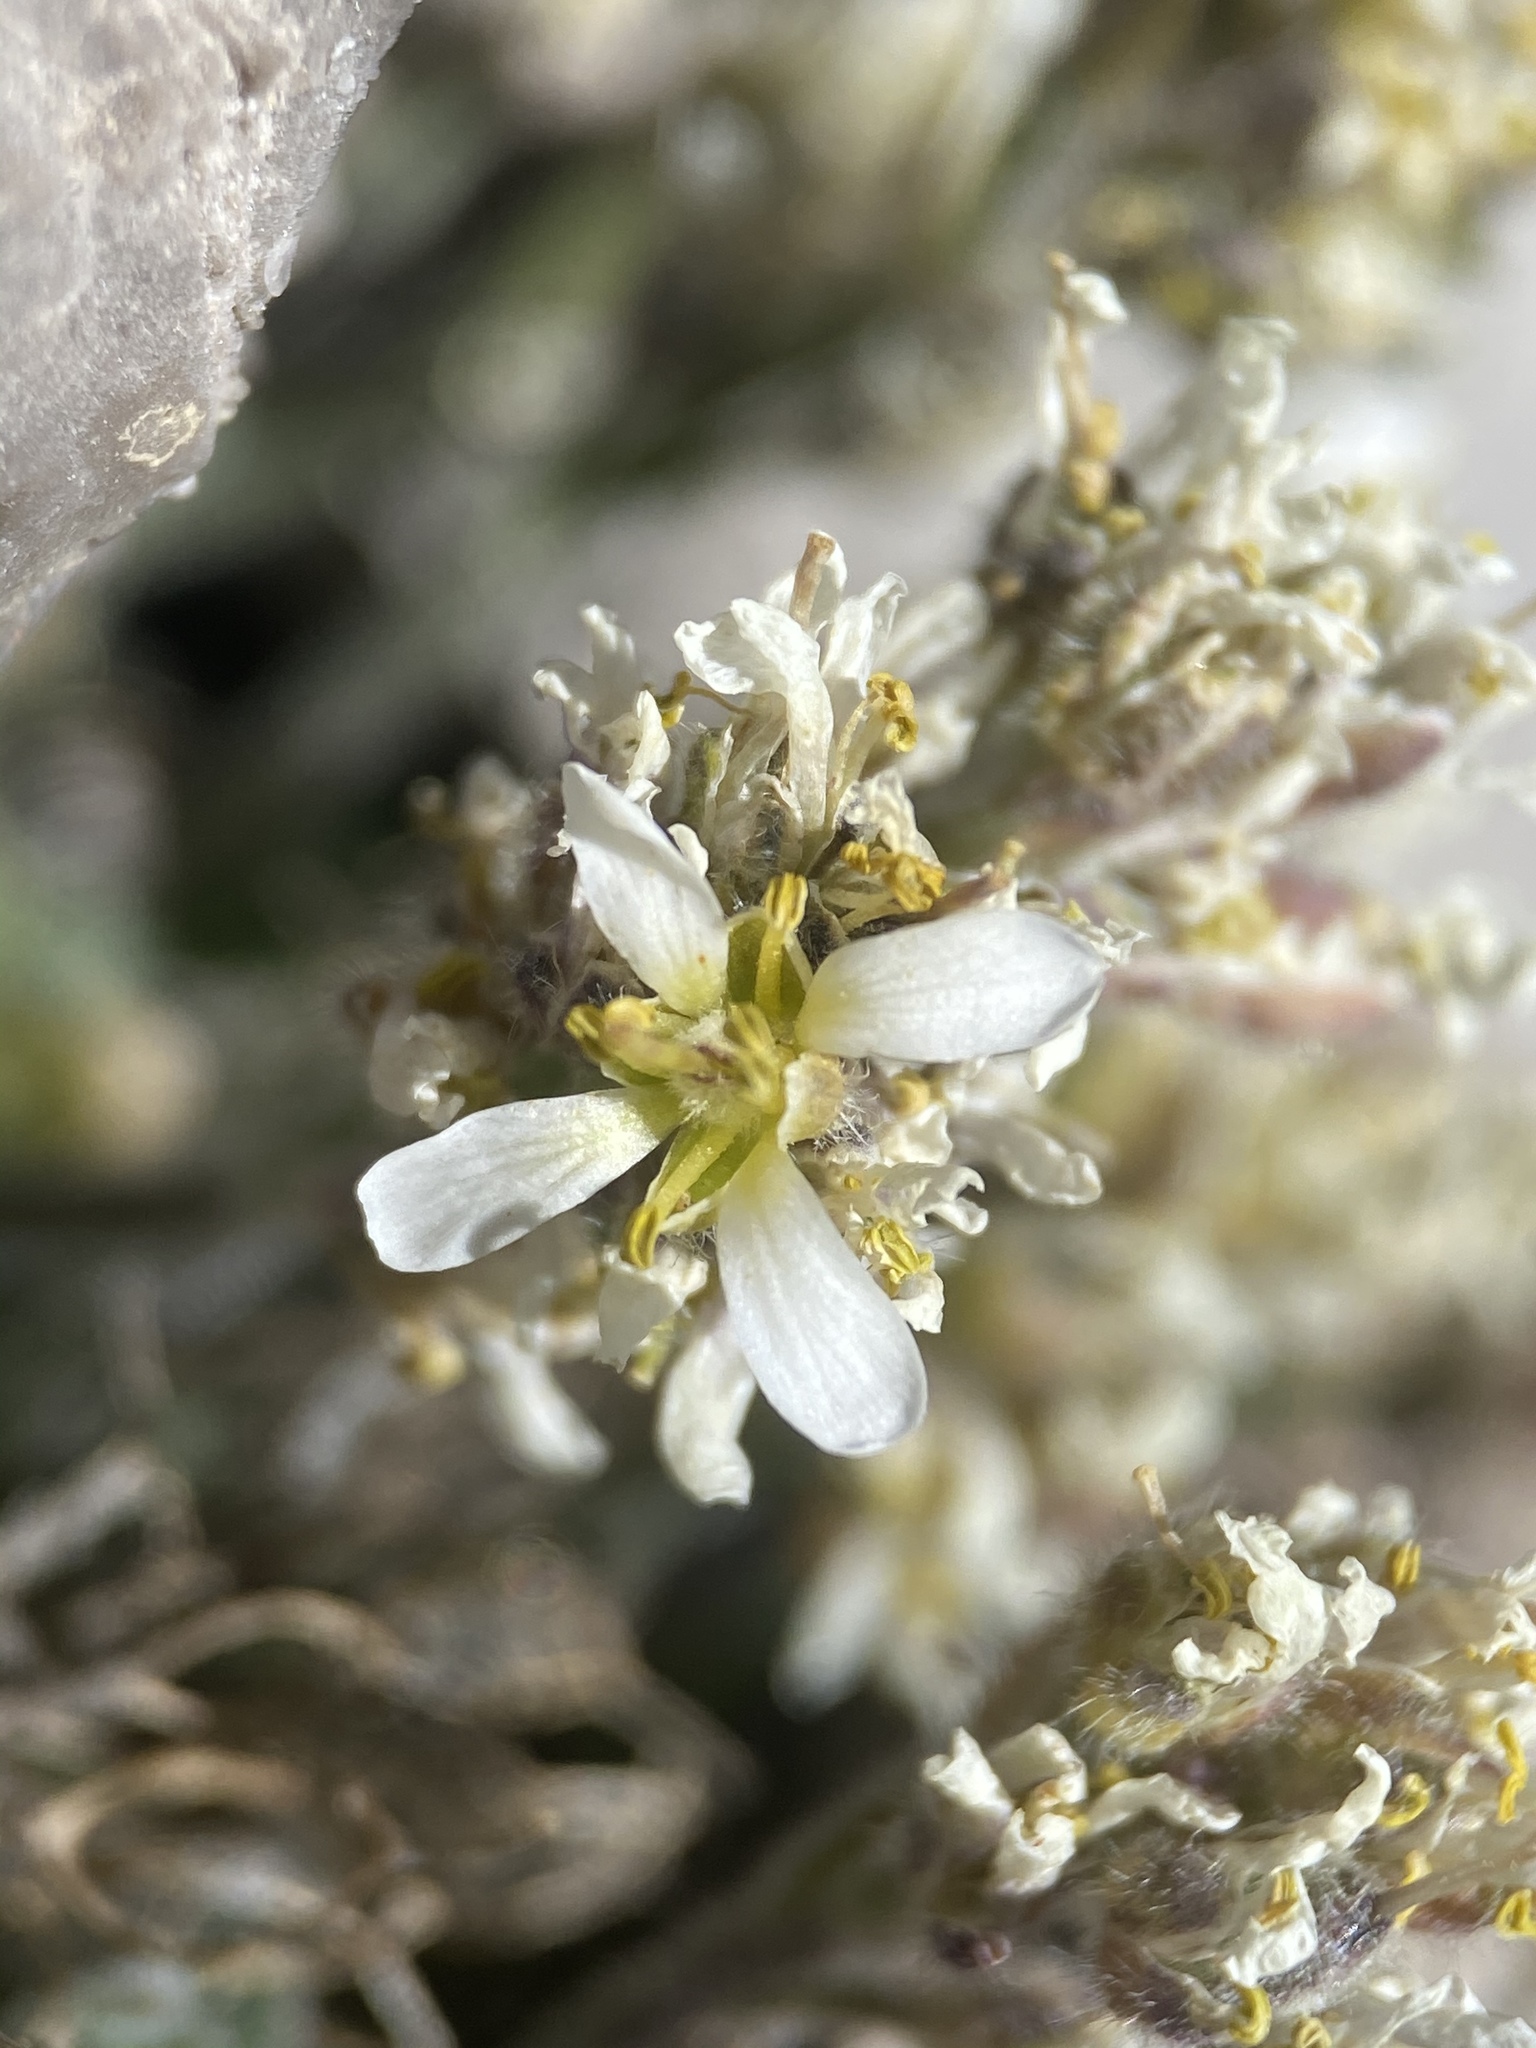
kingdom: Plantae
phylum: Tracheophyta
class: Magnoliopsida
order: Brassicales
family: Brassicaceae
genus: Draba
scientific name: Draba jaegeri
